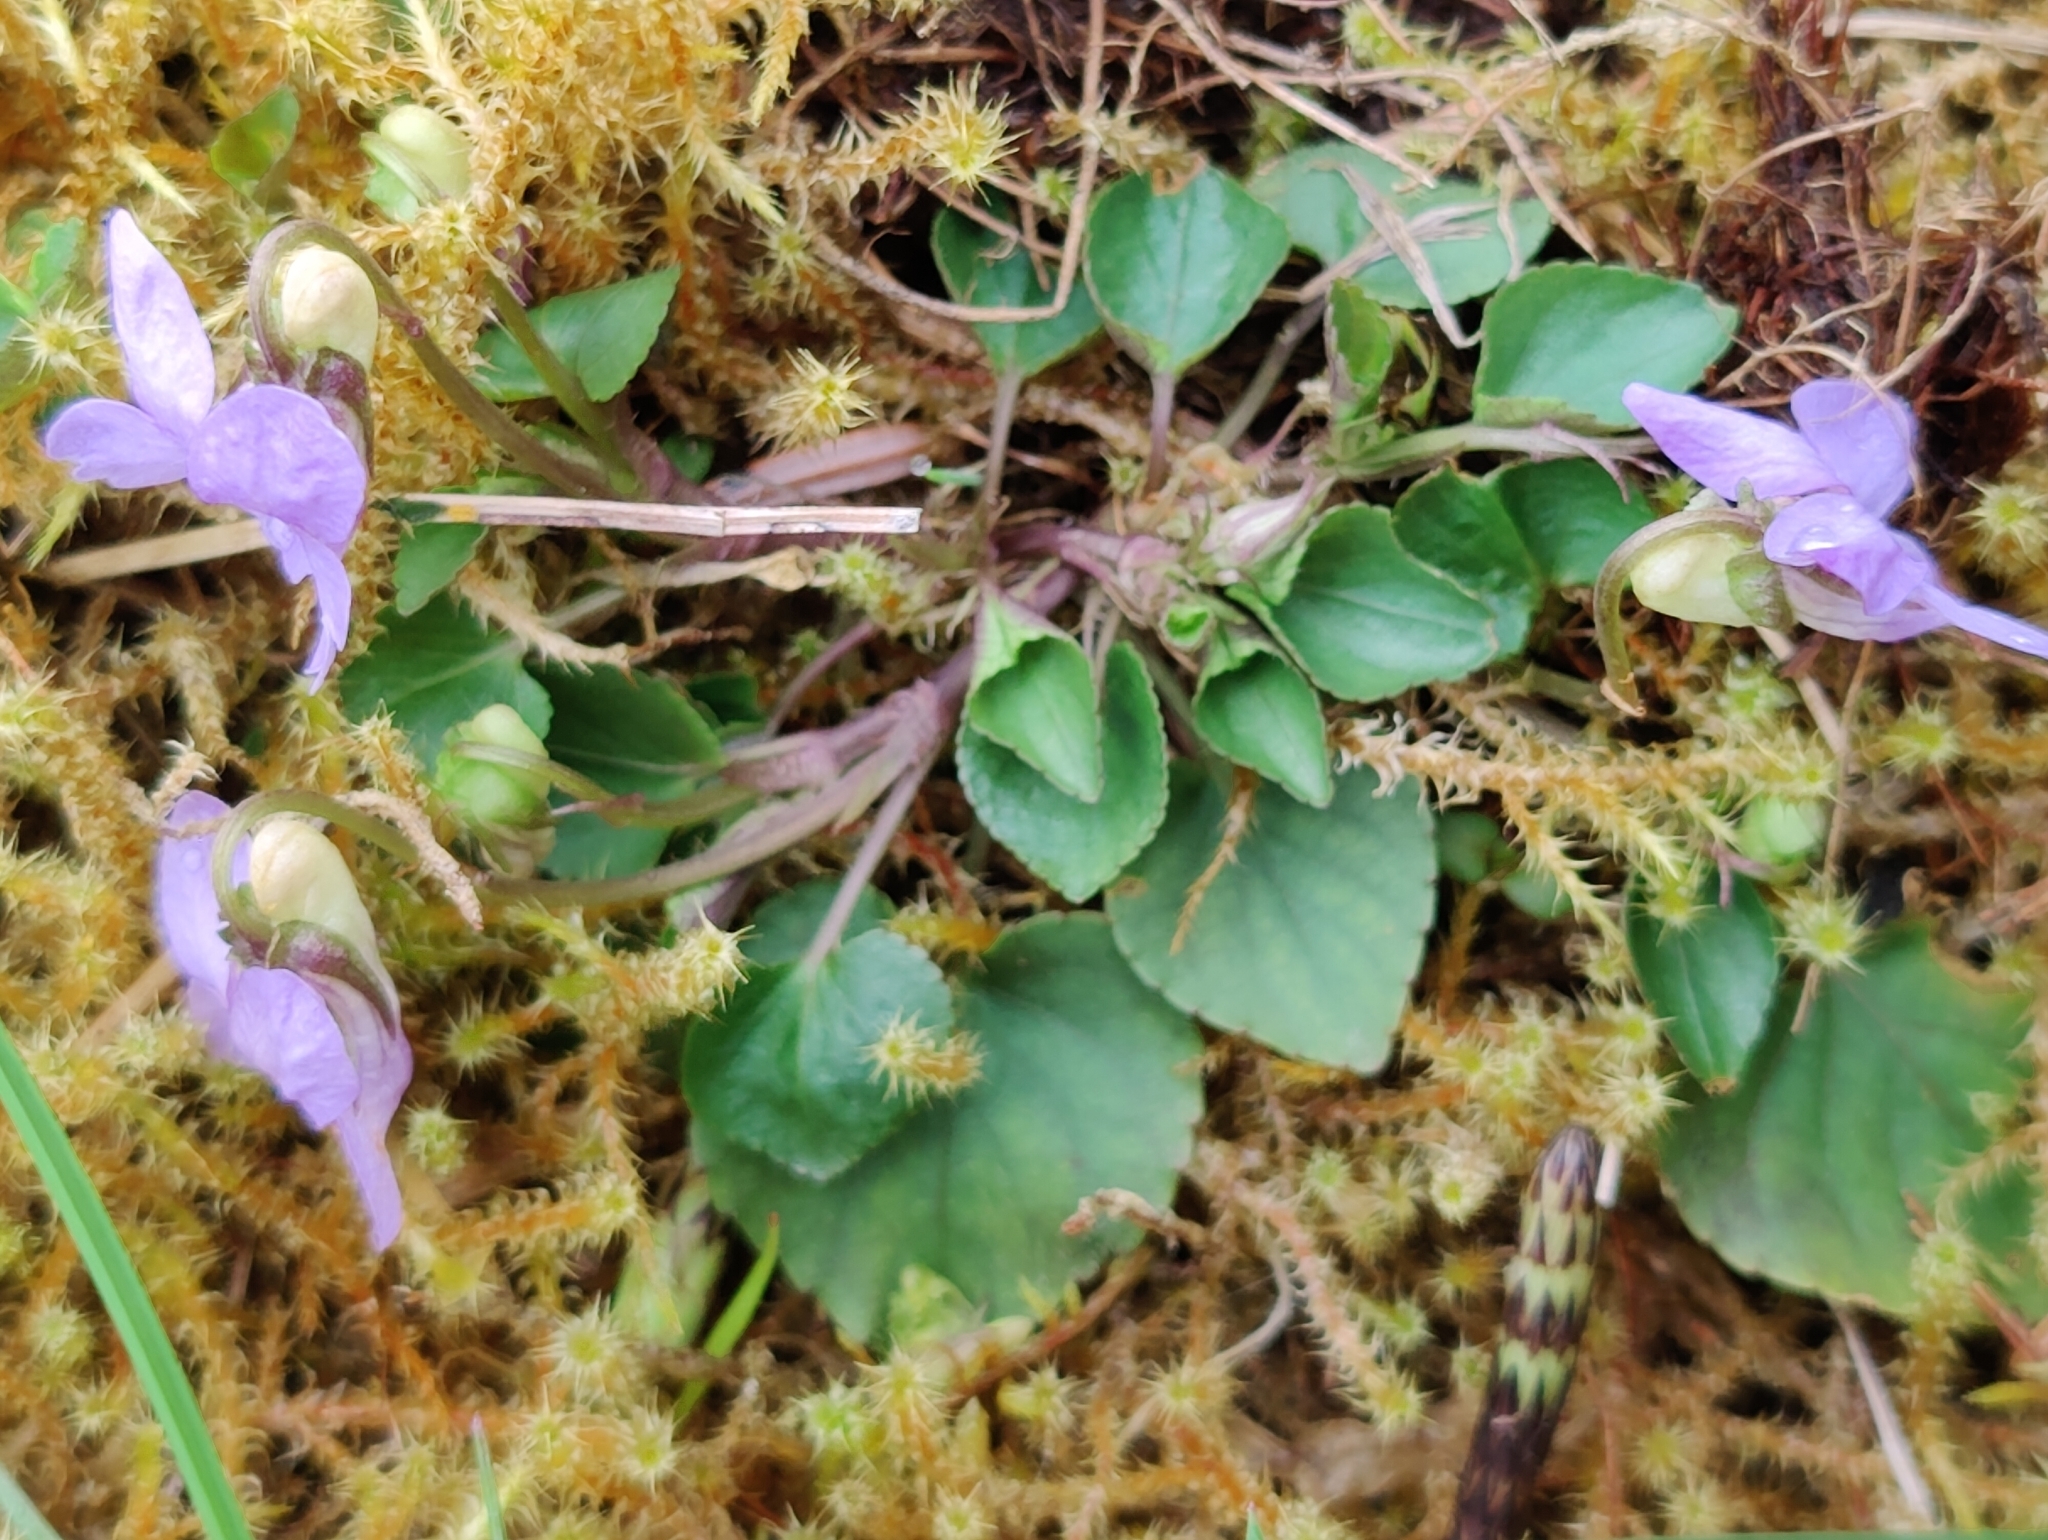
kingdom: Plantae
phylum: Tracheophyta
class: Magnoliopsida
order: Malpighiales
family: Violaceae
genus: Viola
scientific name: Viola riviniana
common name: Common dog-violet
